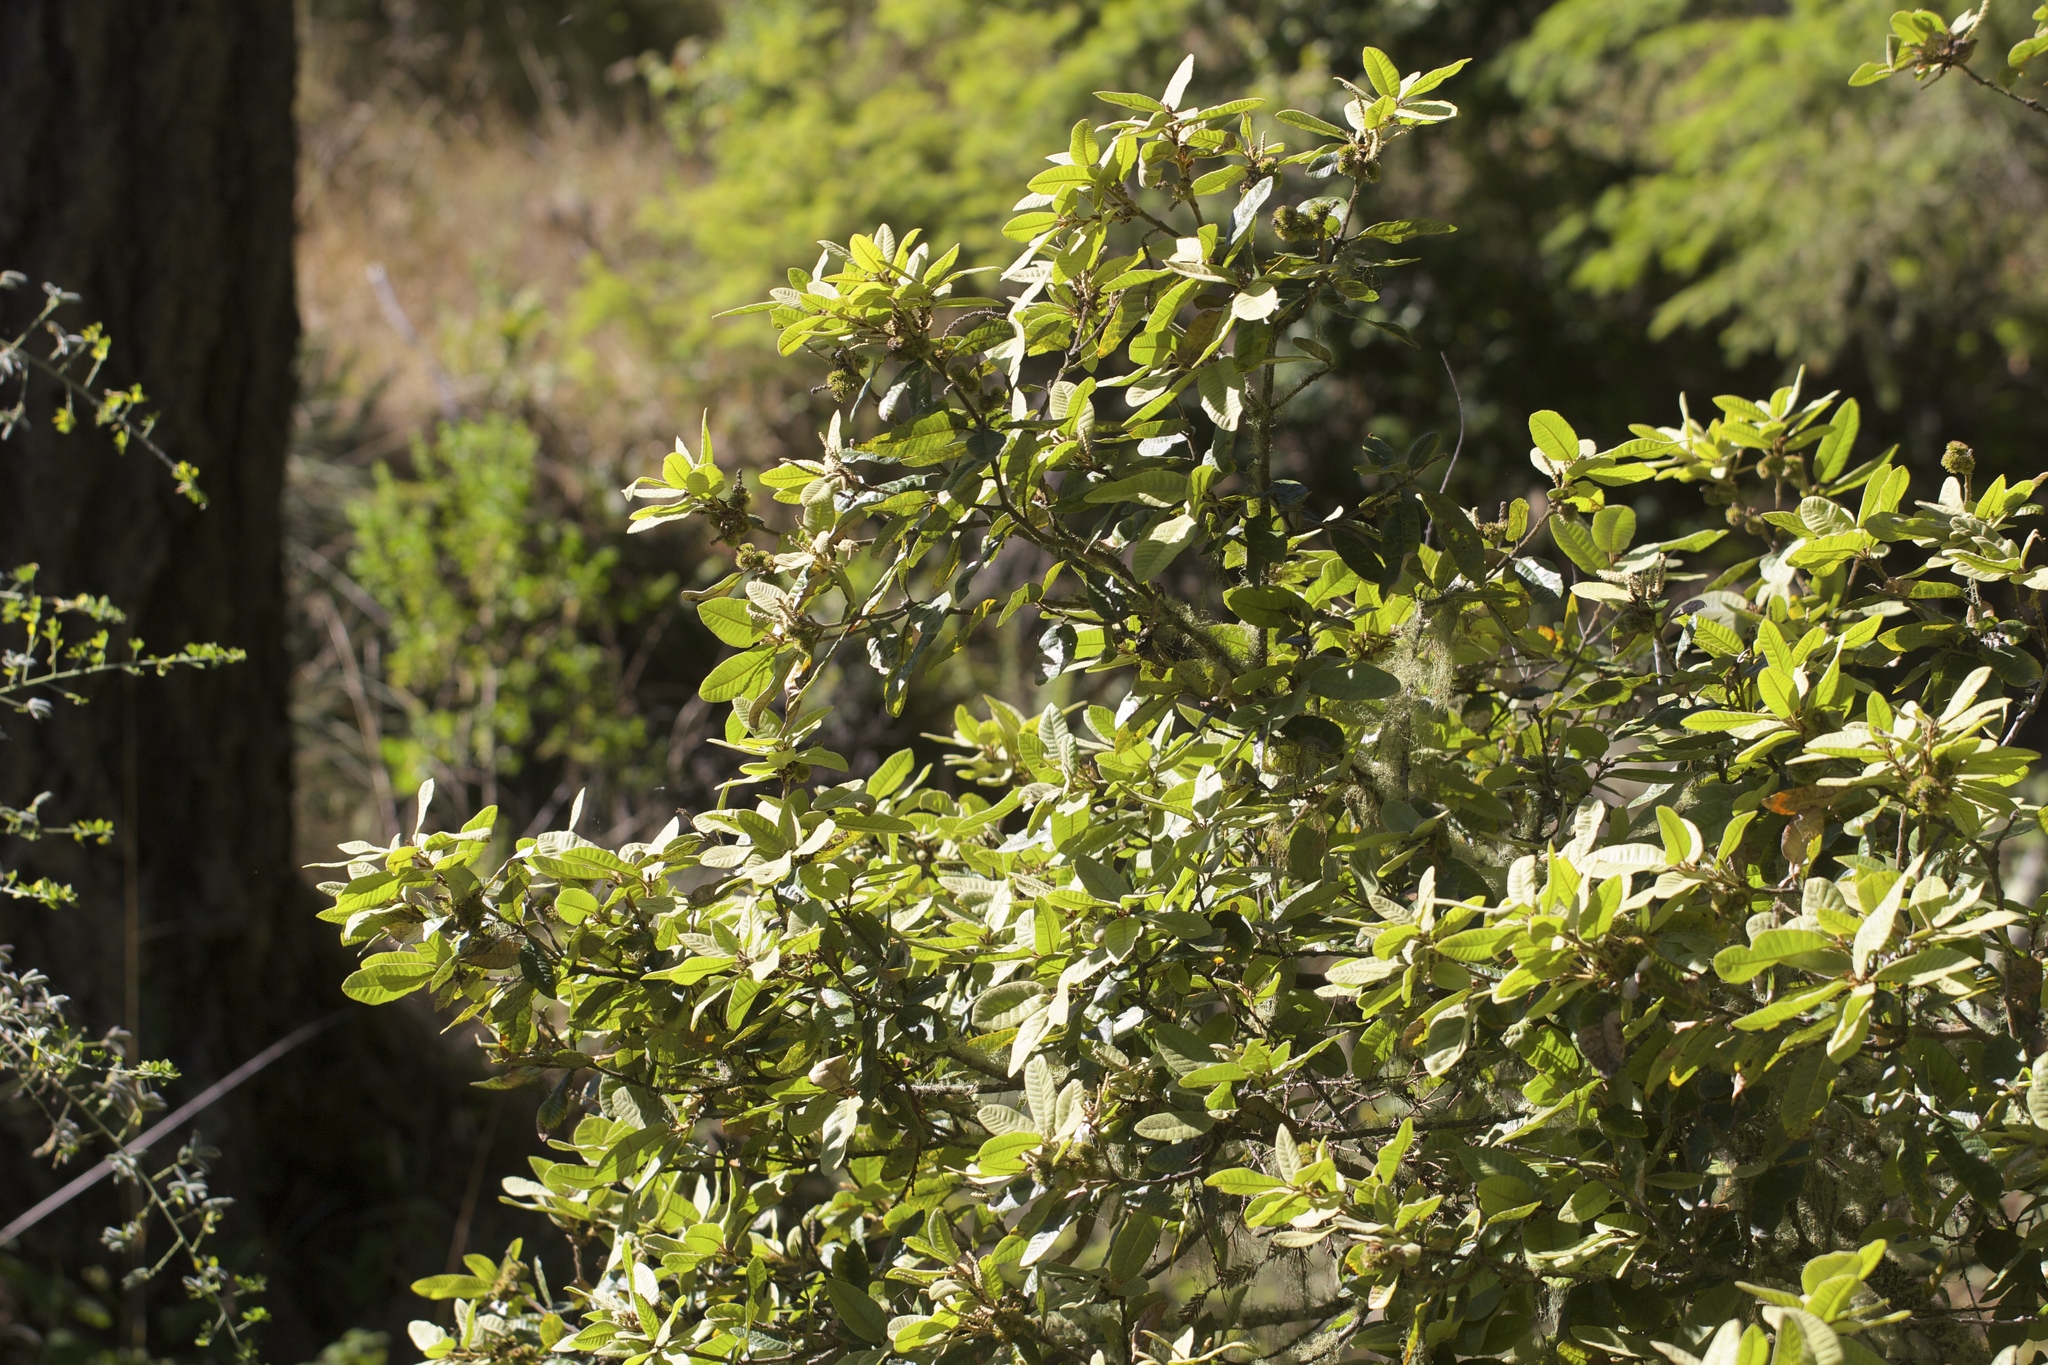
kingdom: Plantae
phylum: Tracheophyta
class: Magnoliopsida
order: Fagales
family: Fagaceae
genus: Notholithocarpus
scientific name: Notholithocarpus densiflorus
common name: Tan bark oak
